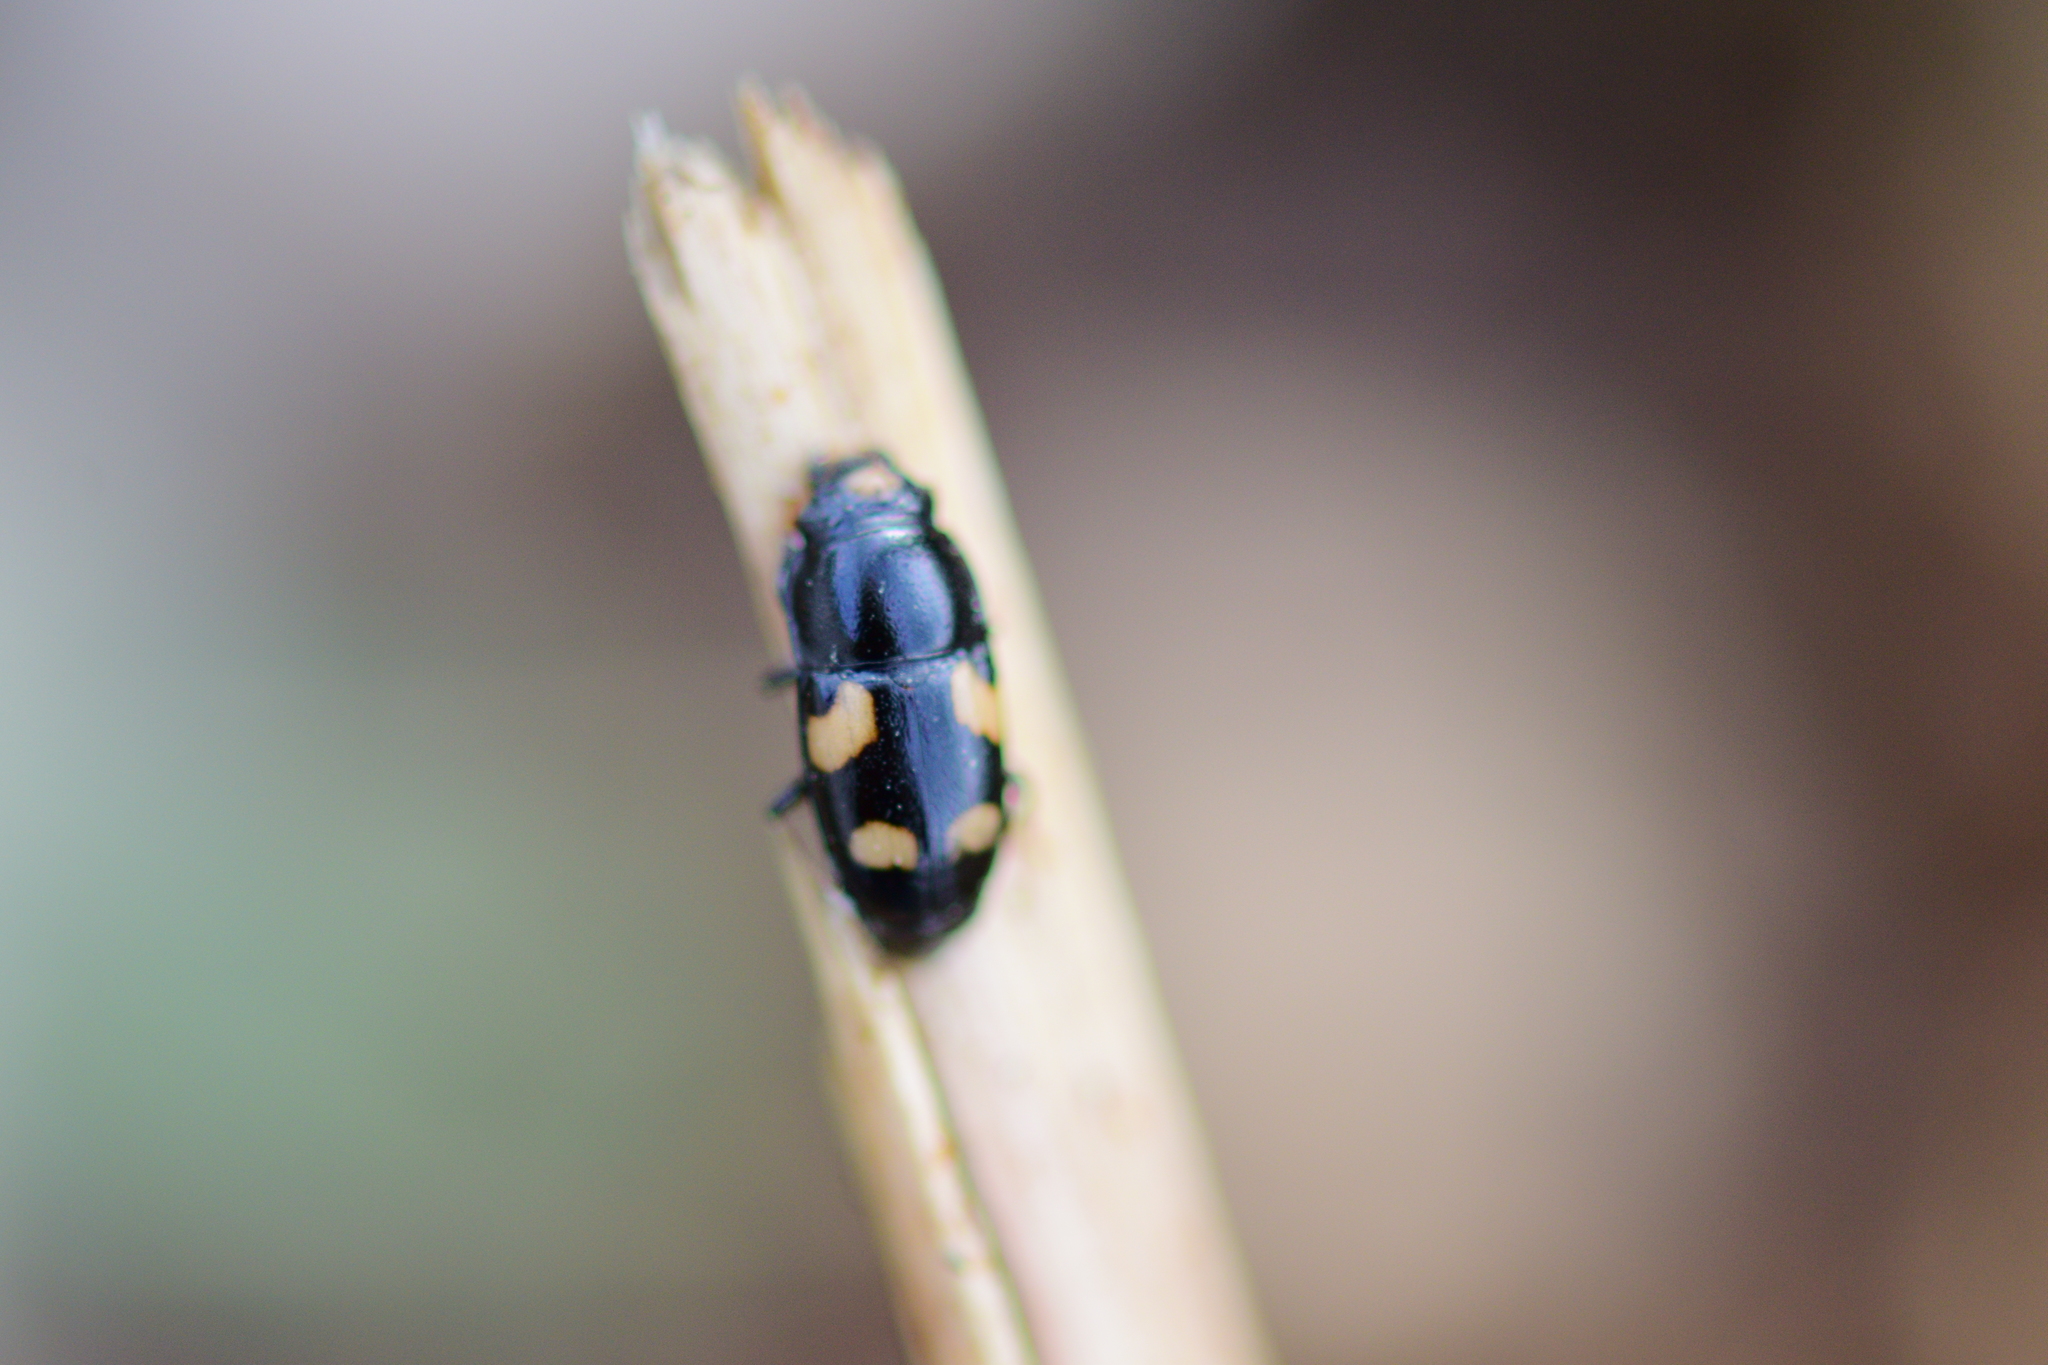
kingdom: Animalia
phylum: Arthropoda
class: Insecta
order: Coleoptera
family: Nitidulidae
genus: Glischrochilus
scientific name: Glischrochilus quadrisignatus
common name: Picnic beetle
